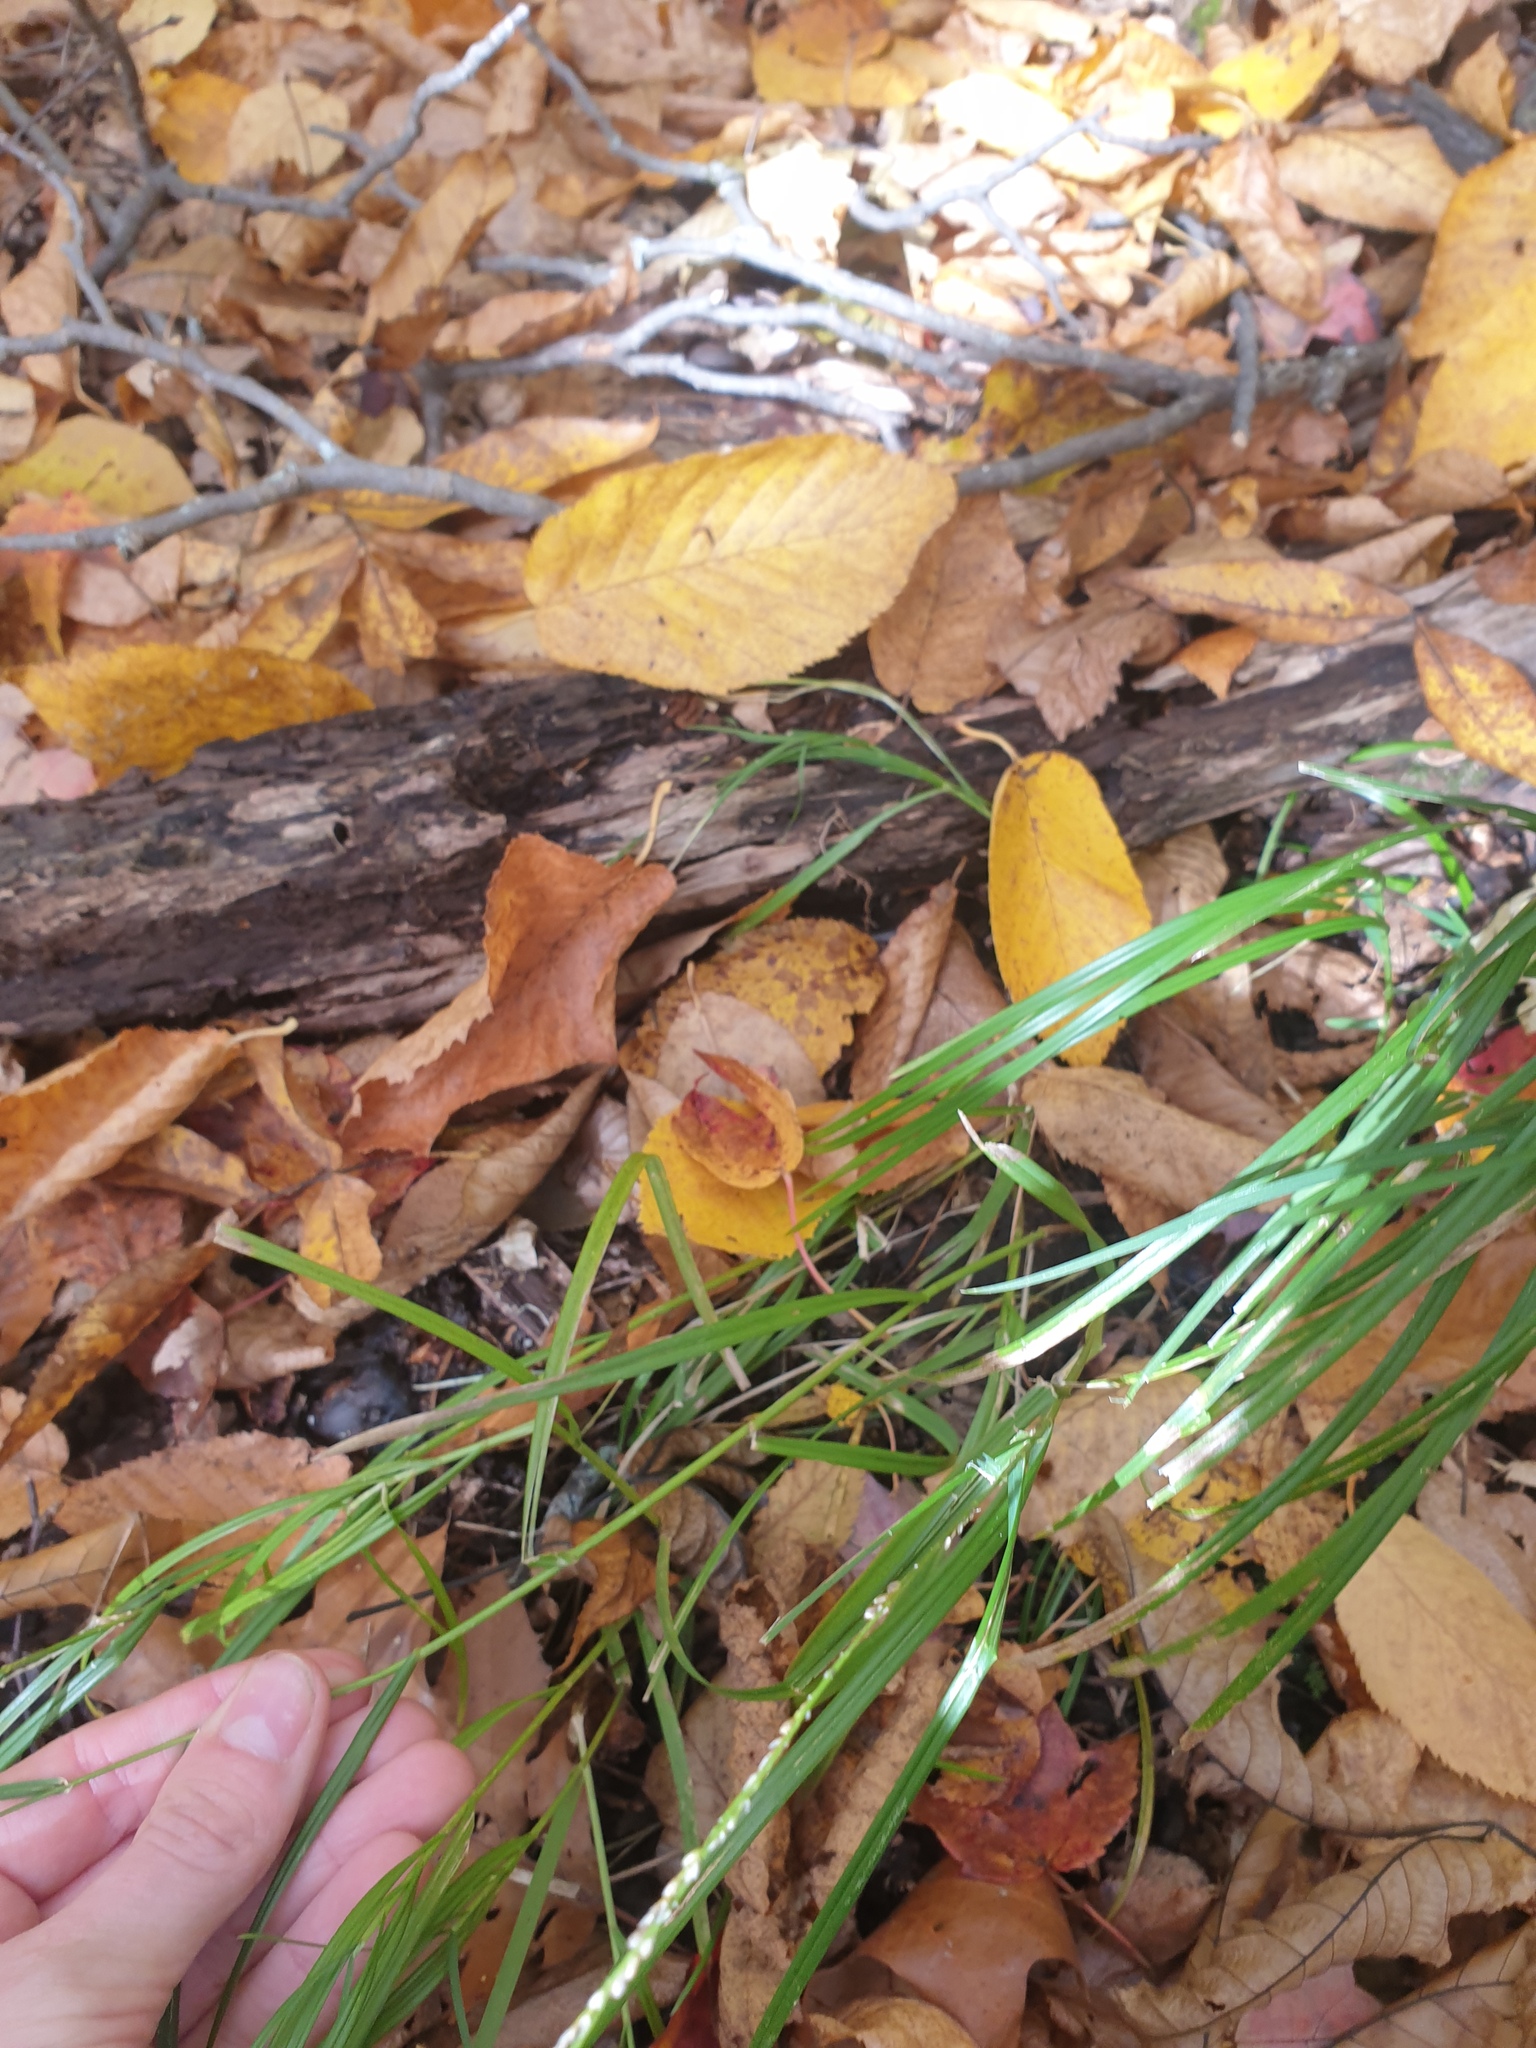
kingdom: Plantae
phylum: Tracheophyta
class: Liliopsida
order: Poales
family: Poaceae
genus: Glyceria
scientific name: Glyceria melicaria
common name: Long mannagrass
